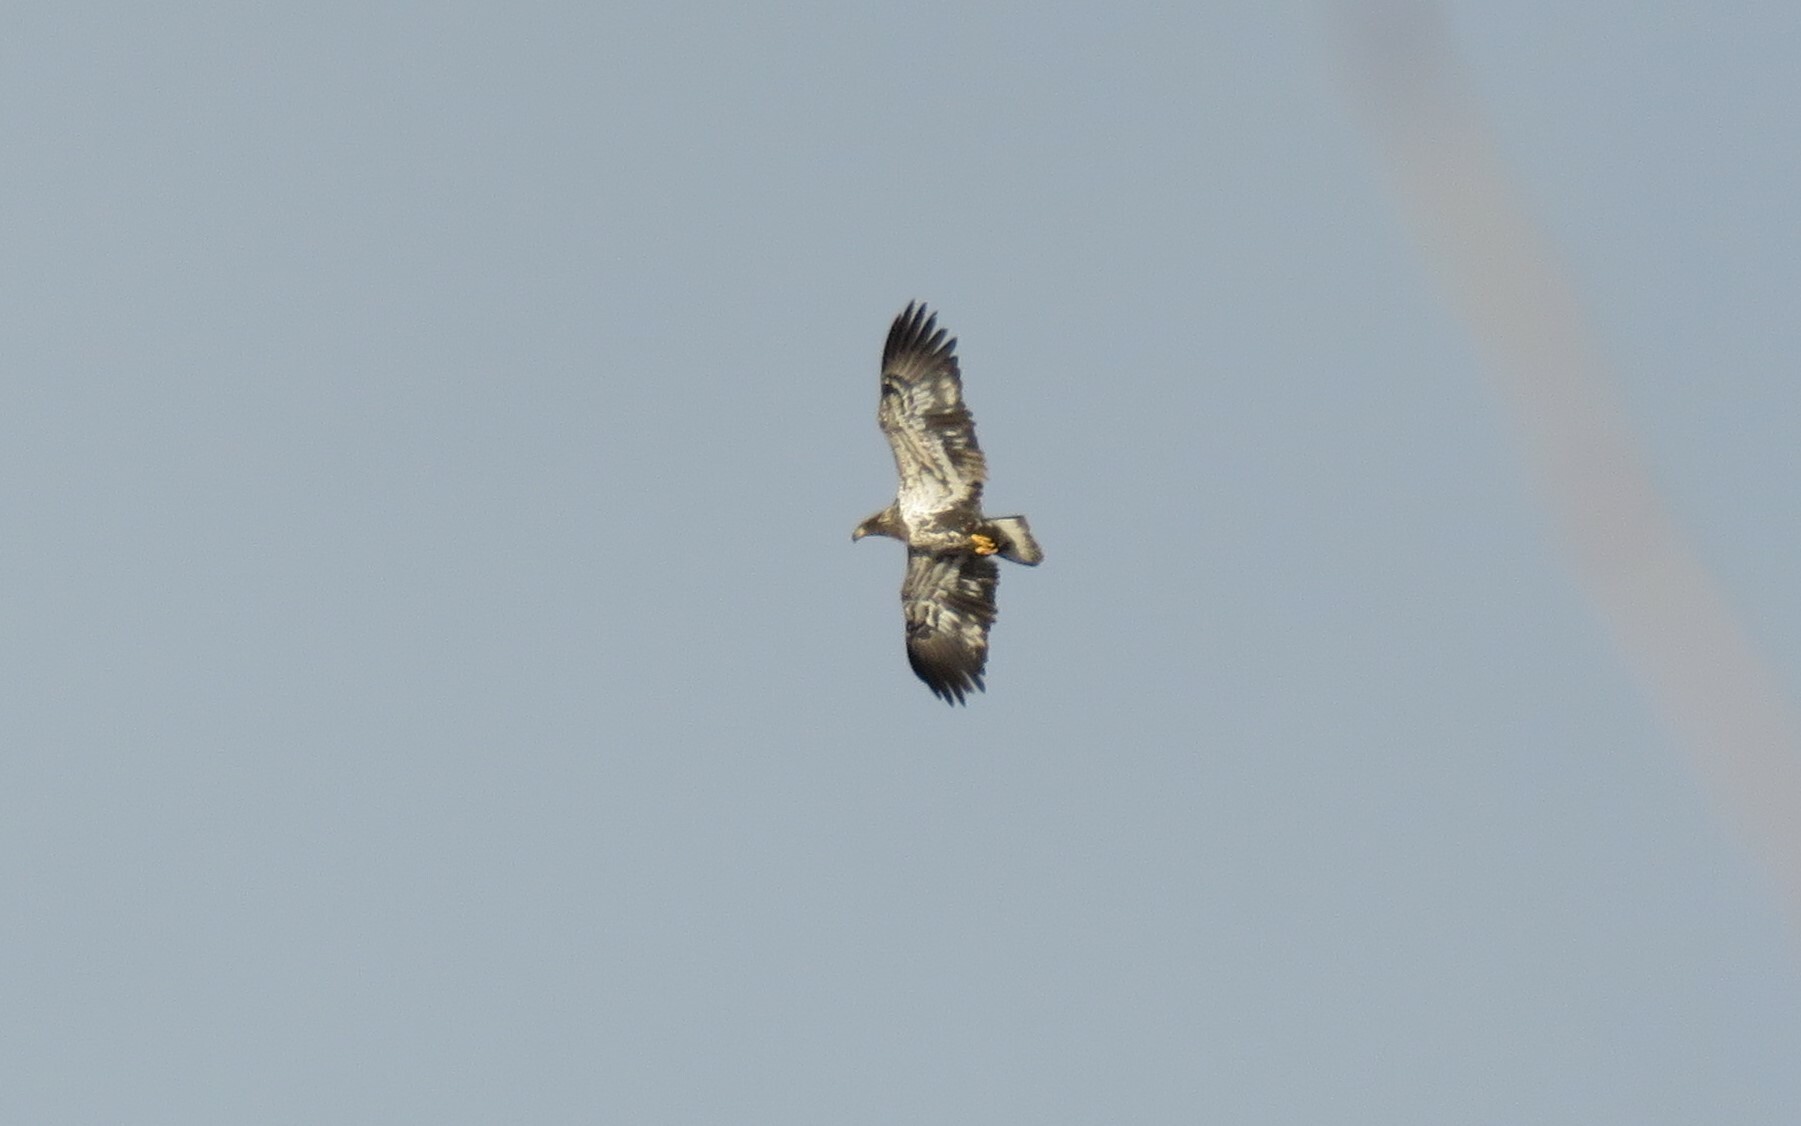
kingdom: Animalia
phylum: Chordata
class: Aves
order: Accipitriformes
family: Accipitridae
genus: Haliaeetus
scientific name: Haliaeetus leucocephalus
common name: Bald eagle
